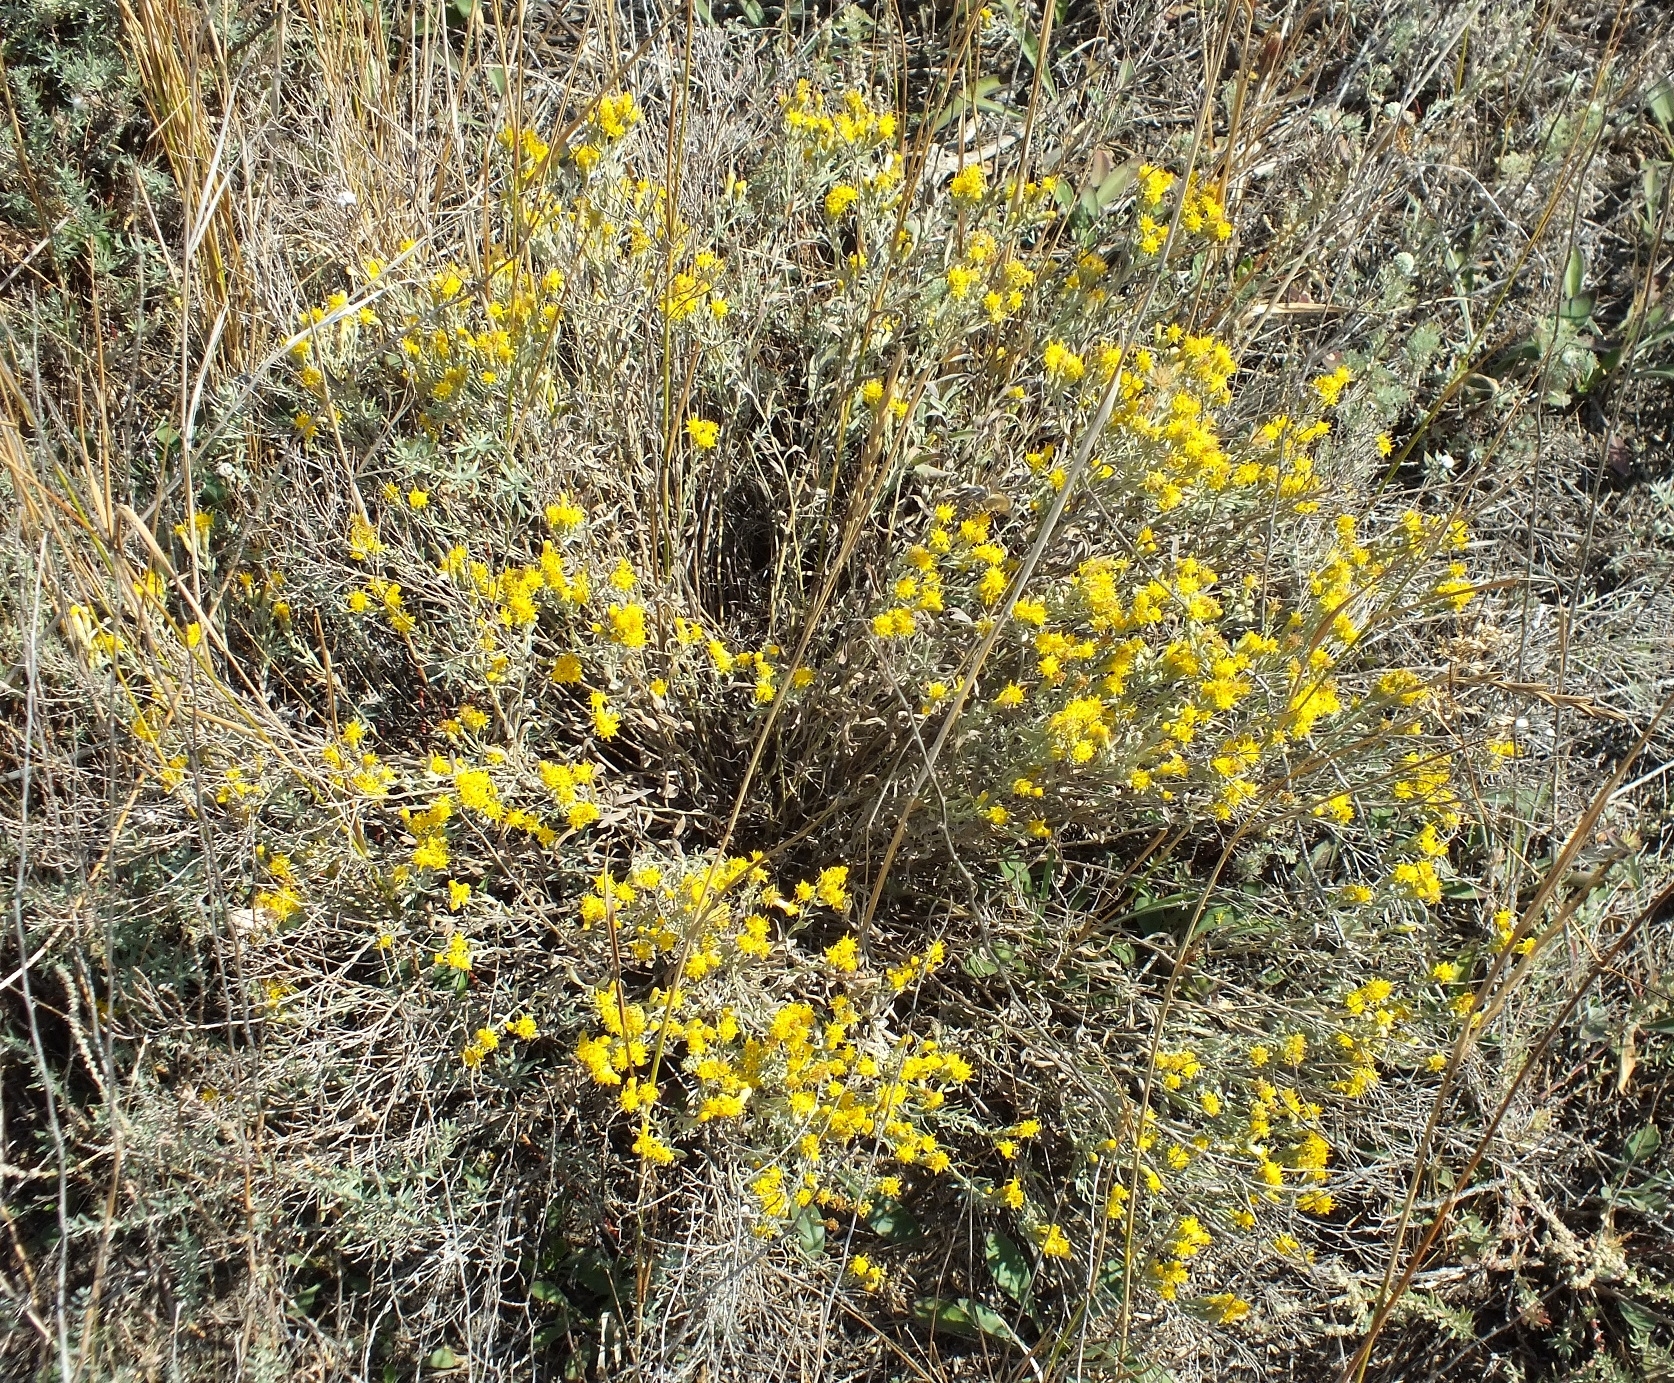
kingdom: Plantae
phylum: Tracheophyta
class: Magnoliopsida
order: Asterales
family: Asteraceae
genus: Galatella
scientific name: Galatella villosa
